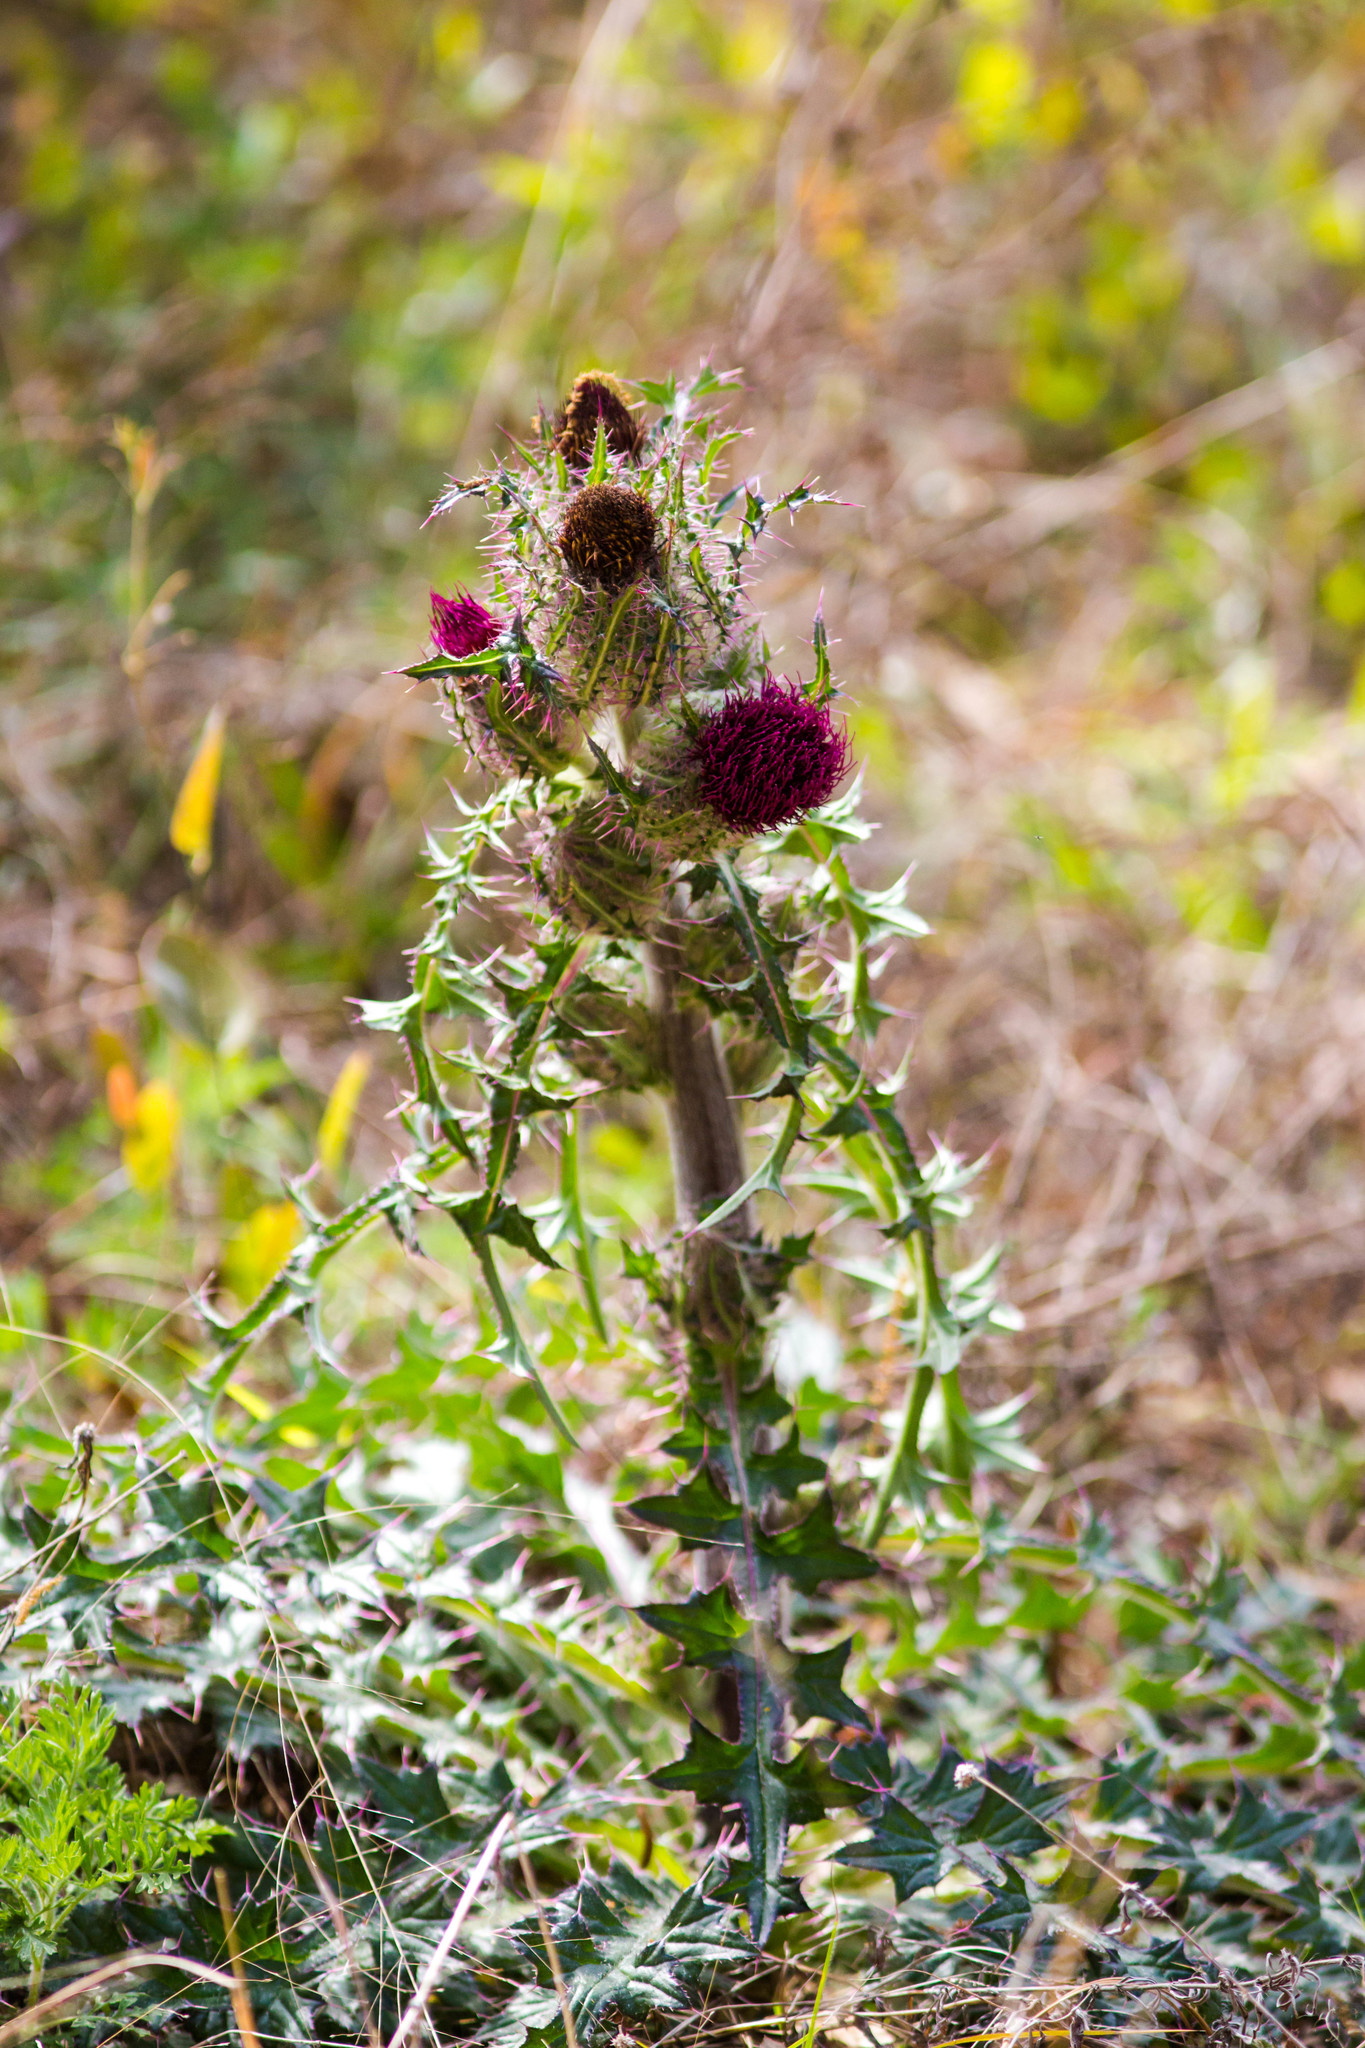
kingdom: Plantae
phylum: Tracheophyta
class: Magnoliopsida
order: Asterales
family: Asteraceae
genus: Cirsium
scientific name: Cirsium horridulum
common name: Bristly thistle
